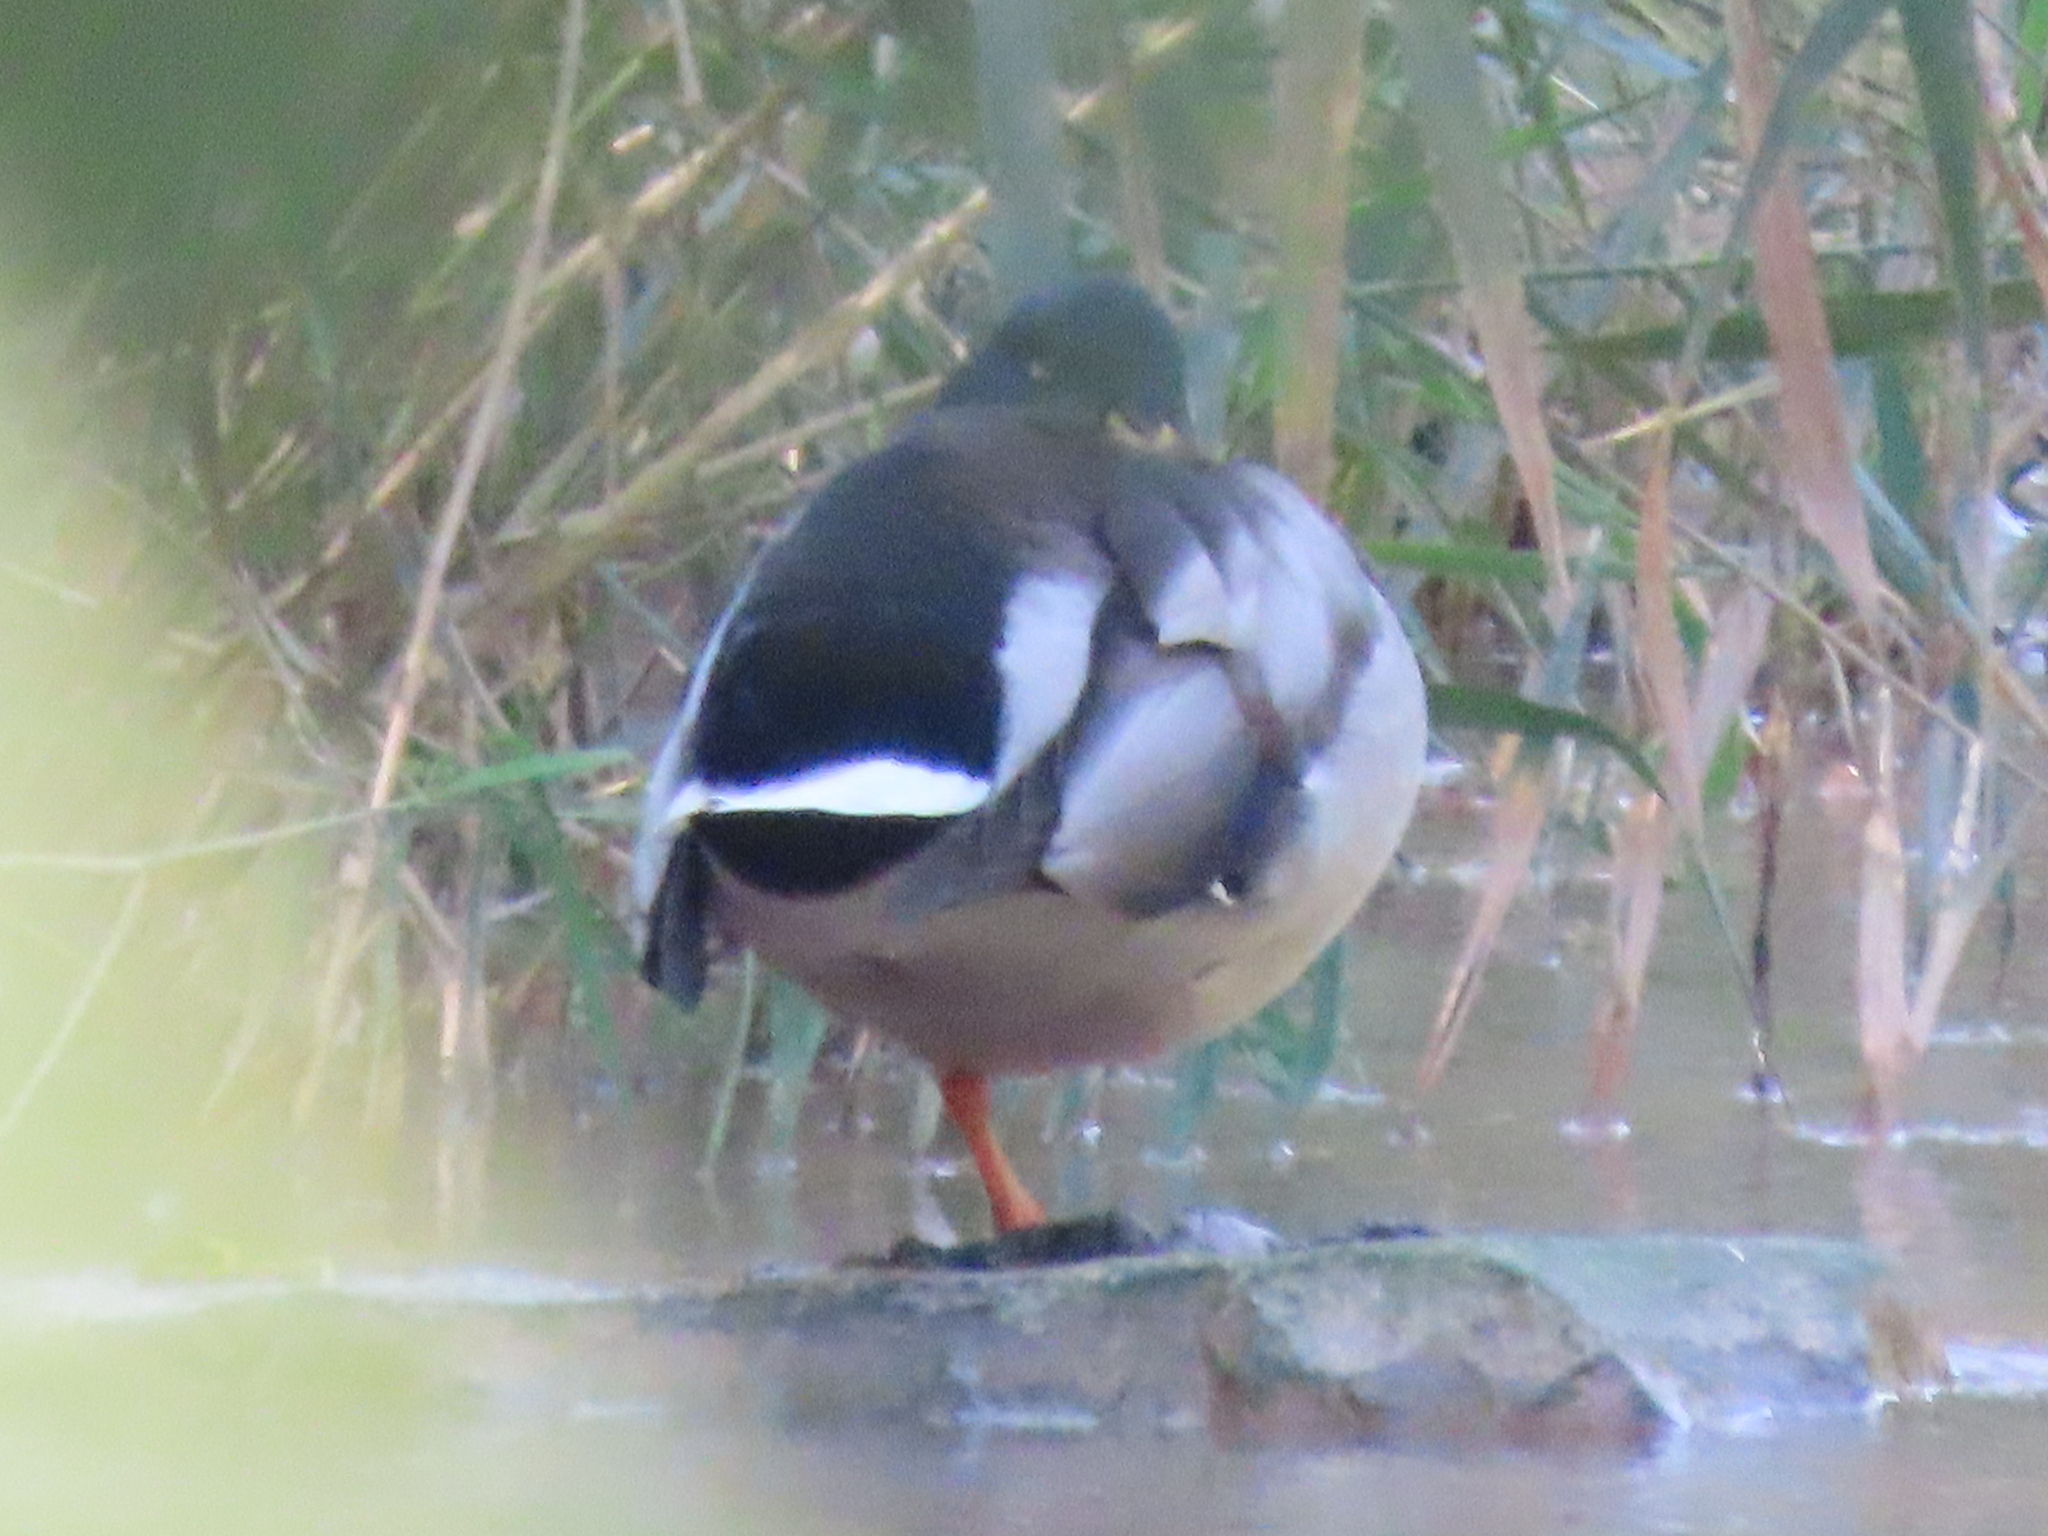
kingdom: Animalia
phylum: Chordata
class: Aves
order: Anseriformes
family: Anatidae
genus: Anas
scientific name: Anas platyrhynchos
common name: Mallard
